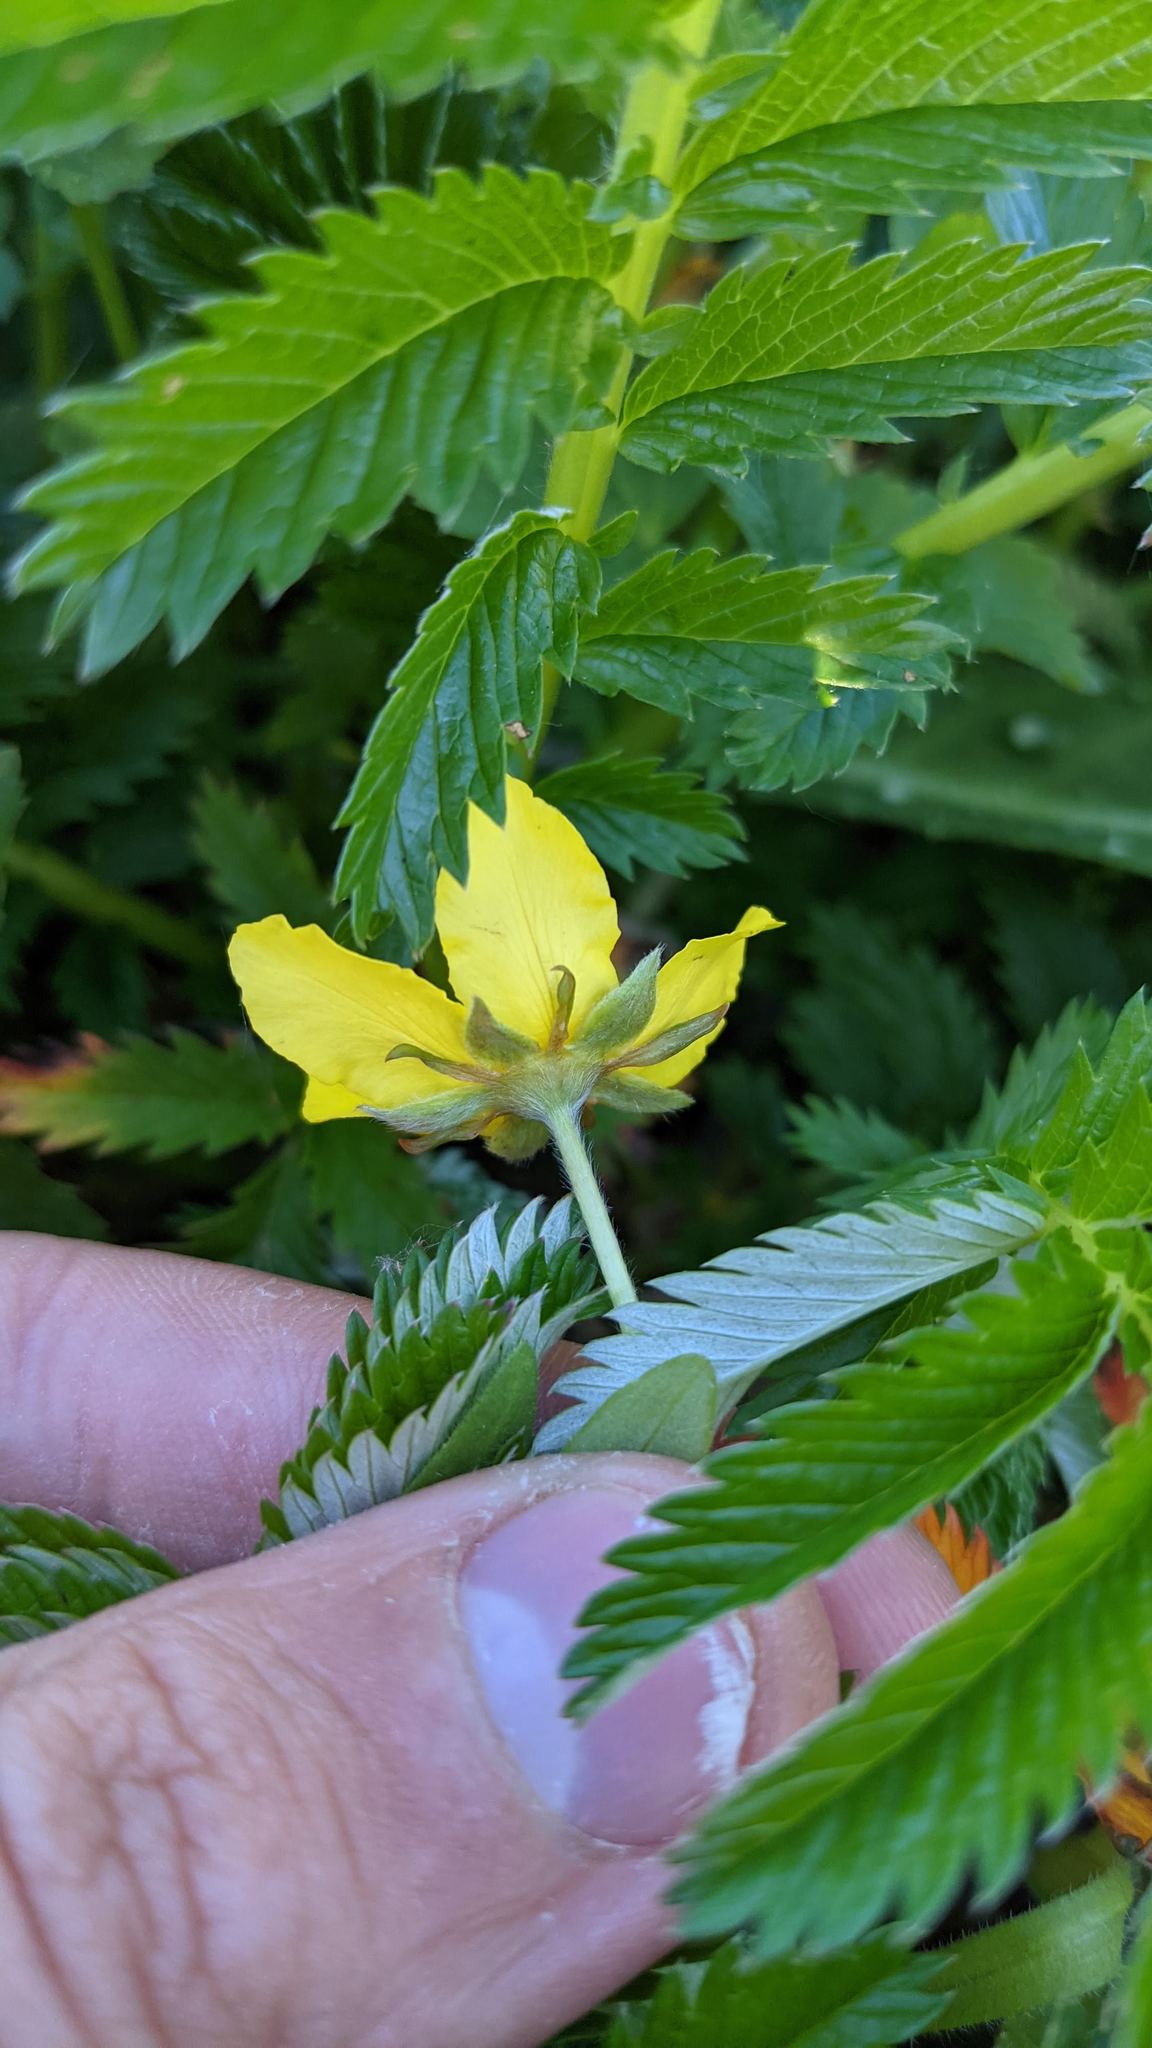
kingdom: Plantae
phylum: Tracheophyta
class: Magnoliopsida
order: Rosales
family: Rosaceae
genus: Argentina
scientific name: Argentina anserina
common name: Common silverweed
